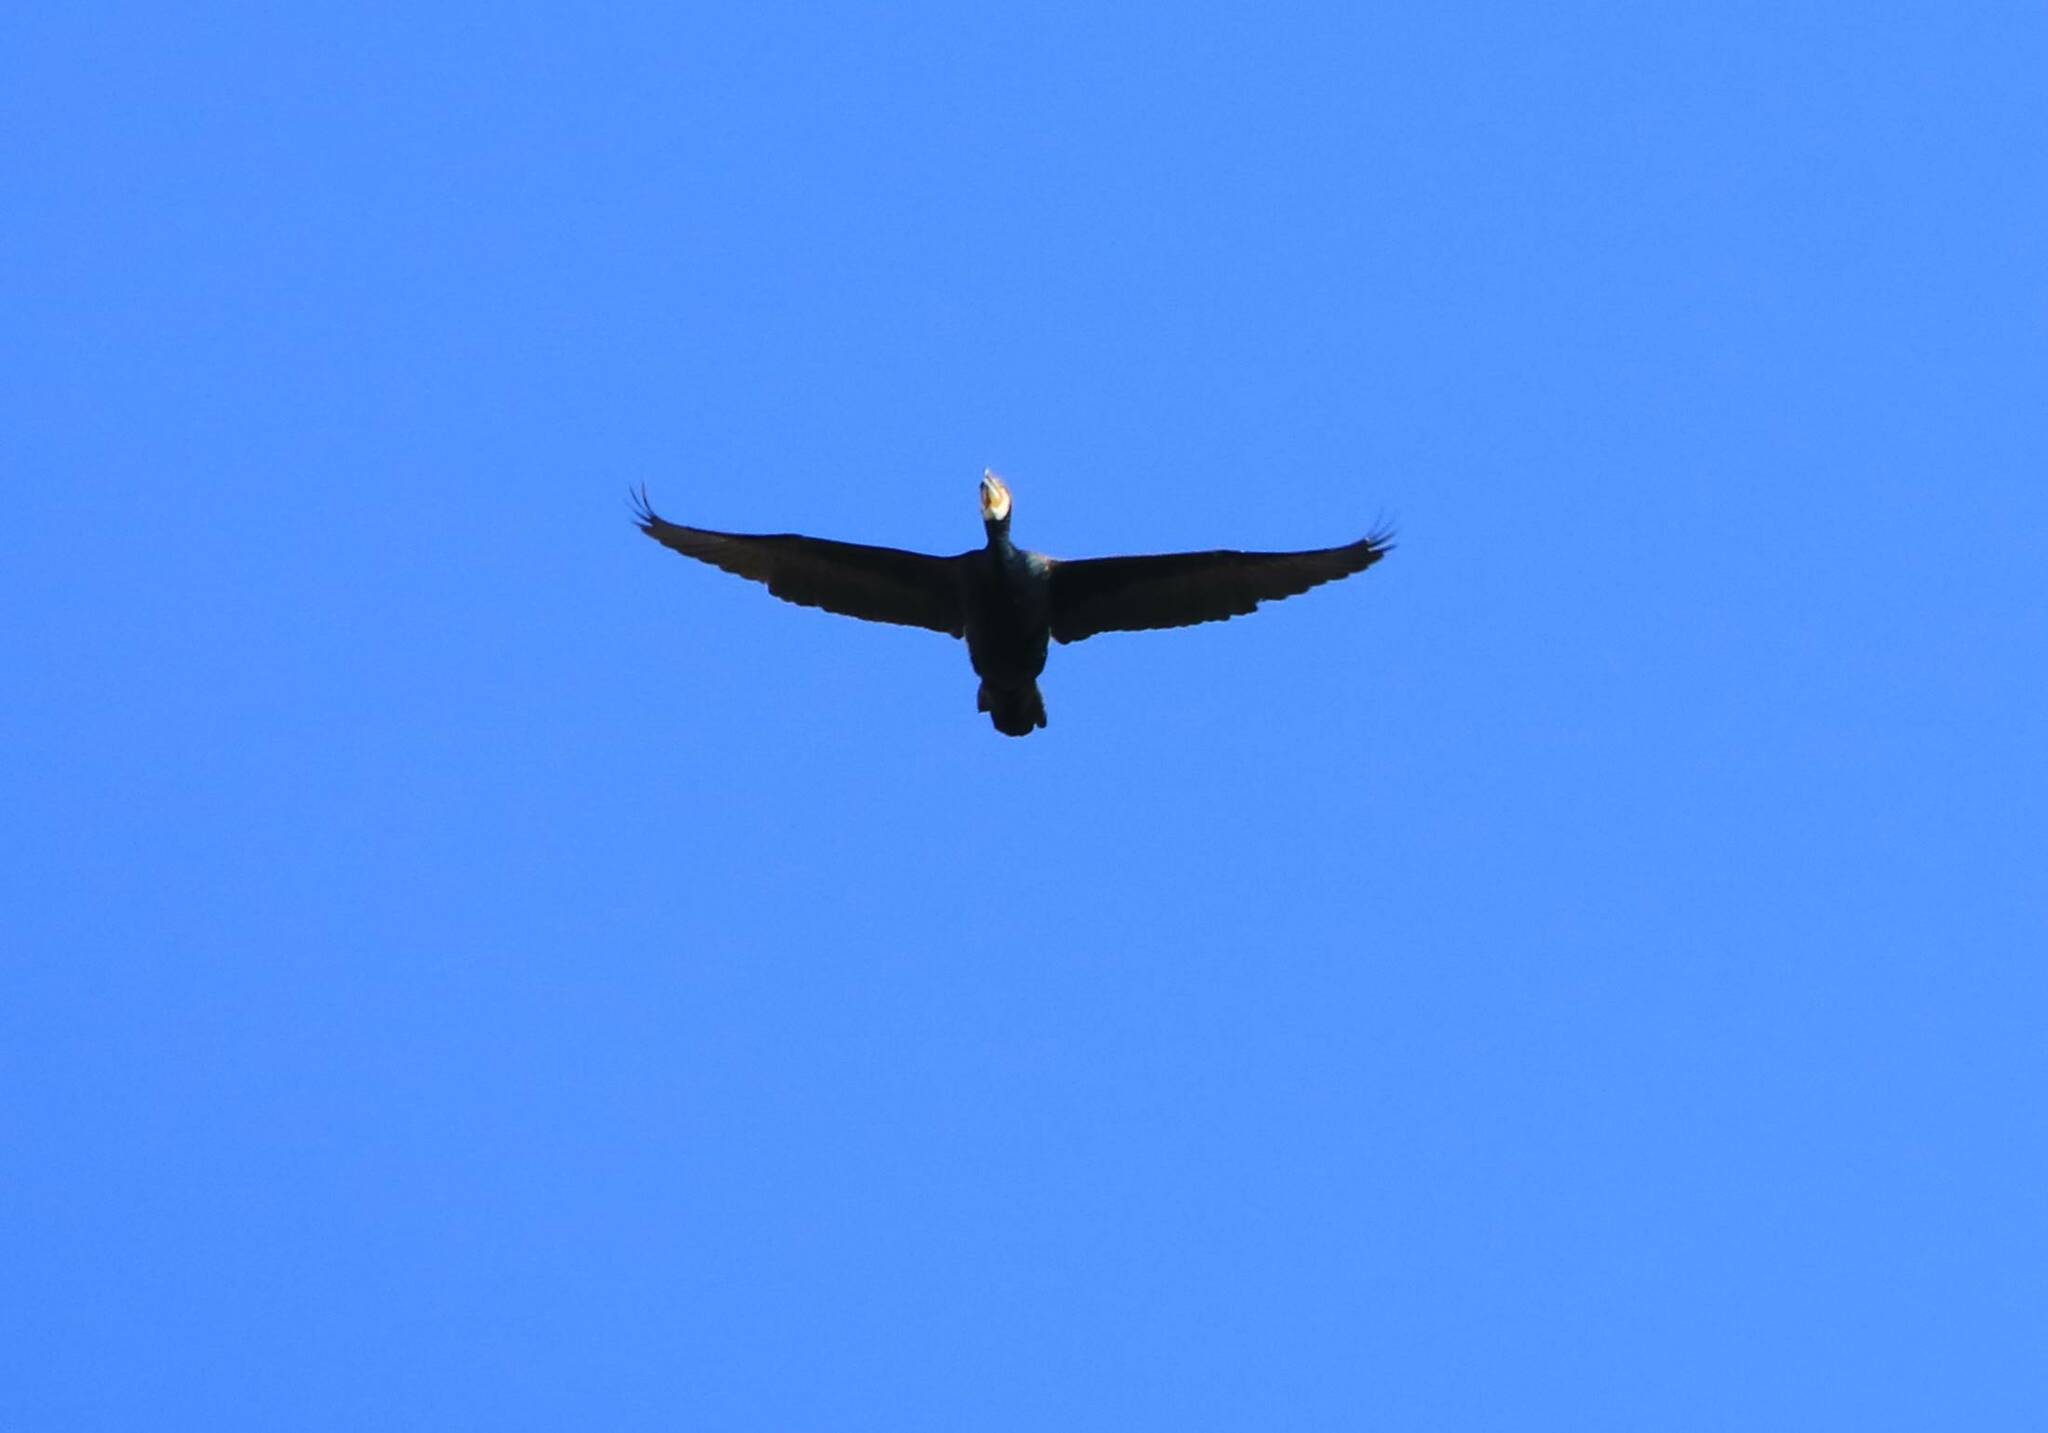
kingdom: Animalia
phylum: Chordata
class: Aves
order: Suliformes
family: Phalacrocoracidae
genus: Phalacrocorax
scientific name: Phalacrocorax carbo
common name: Great cormorant
